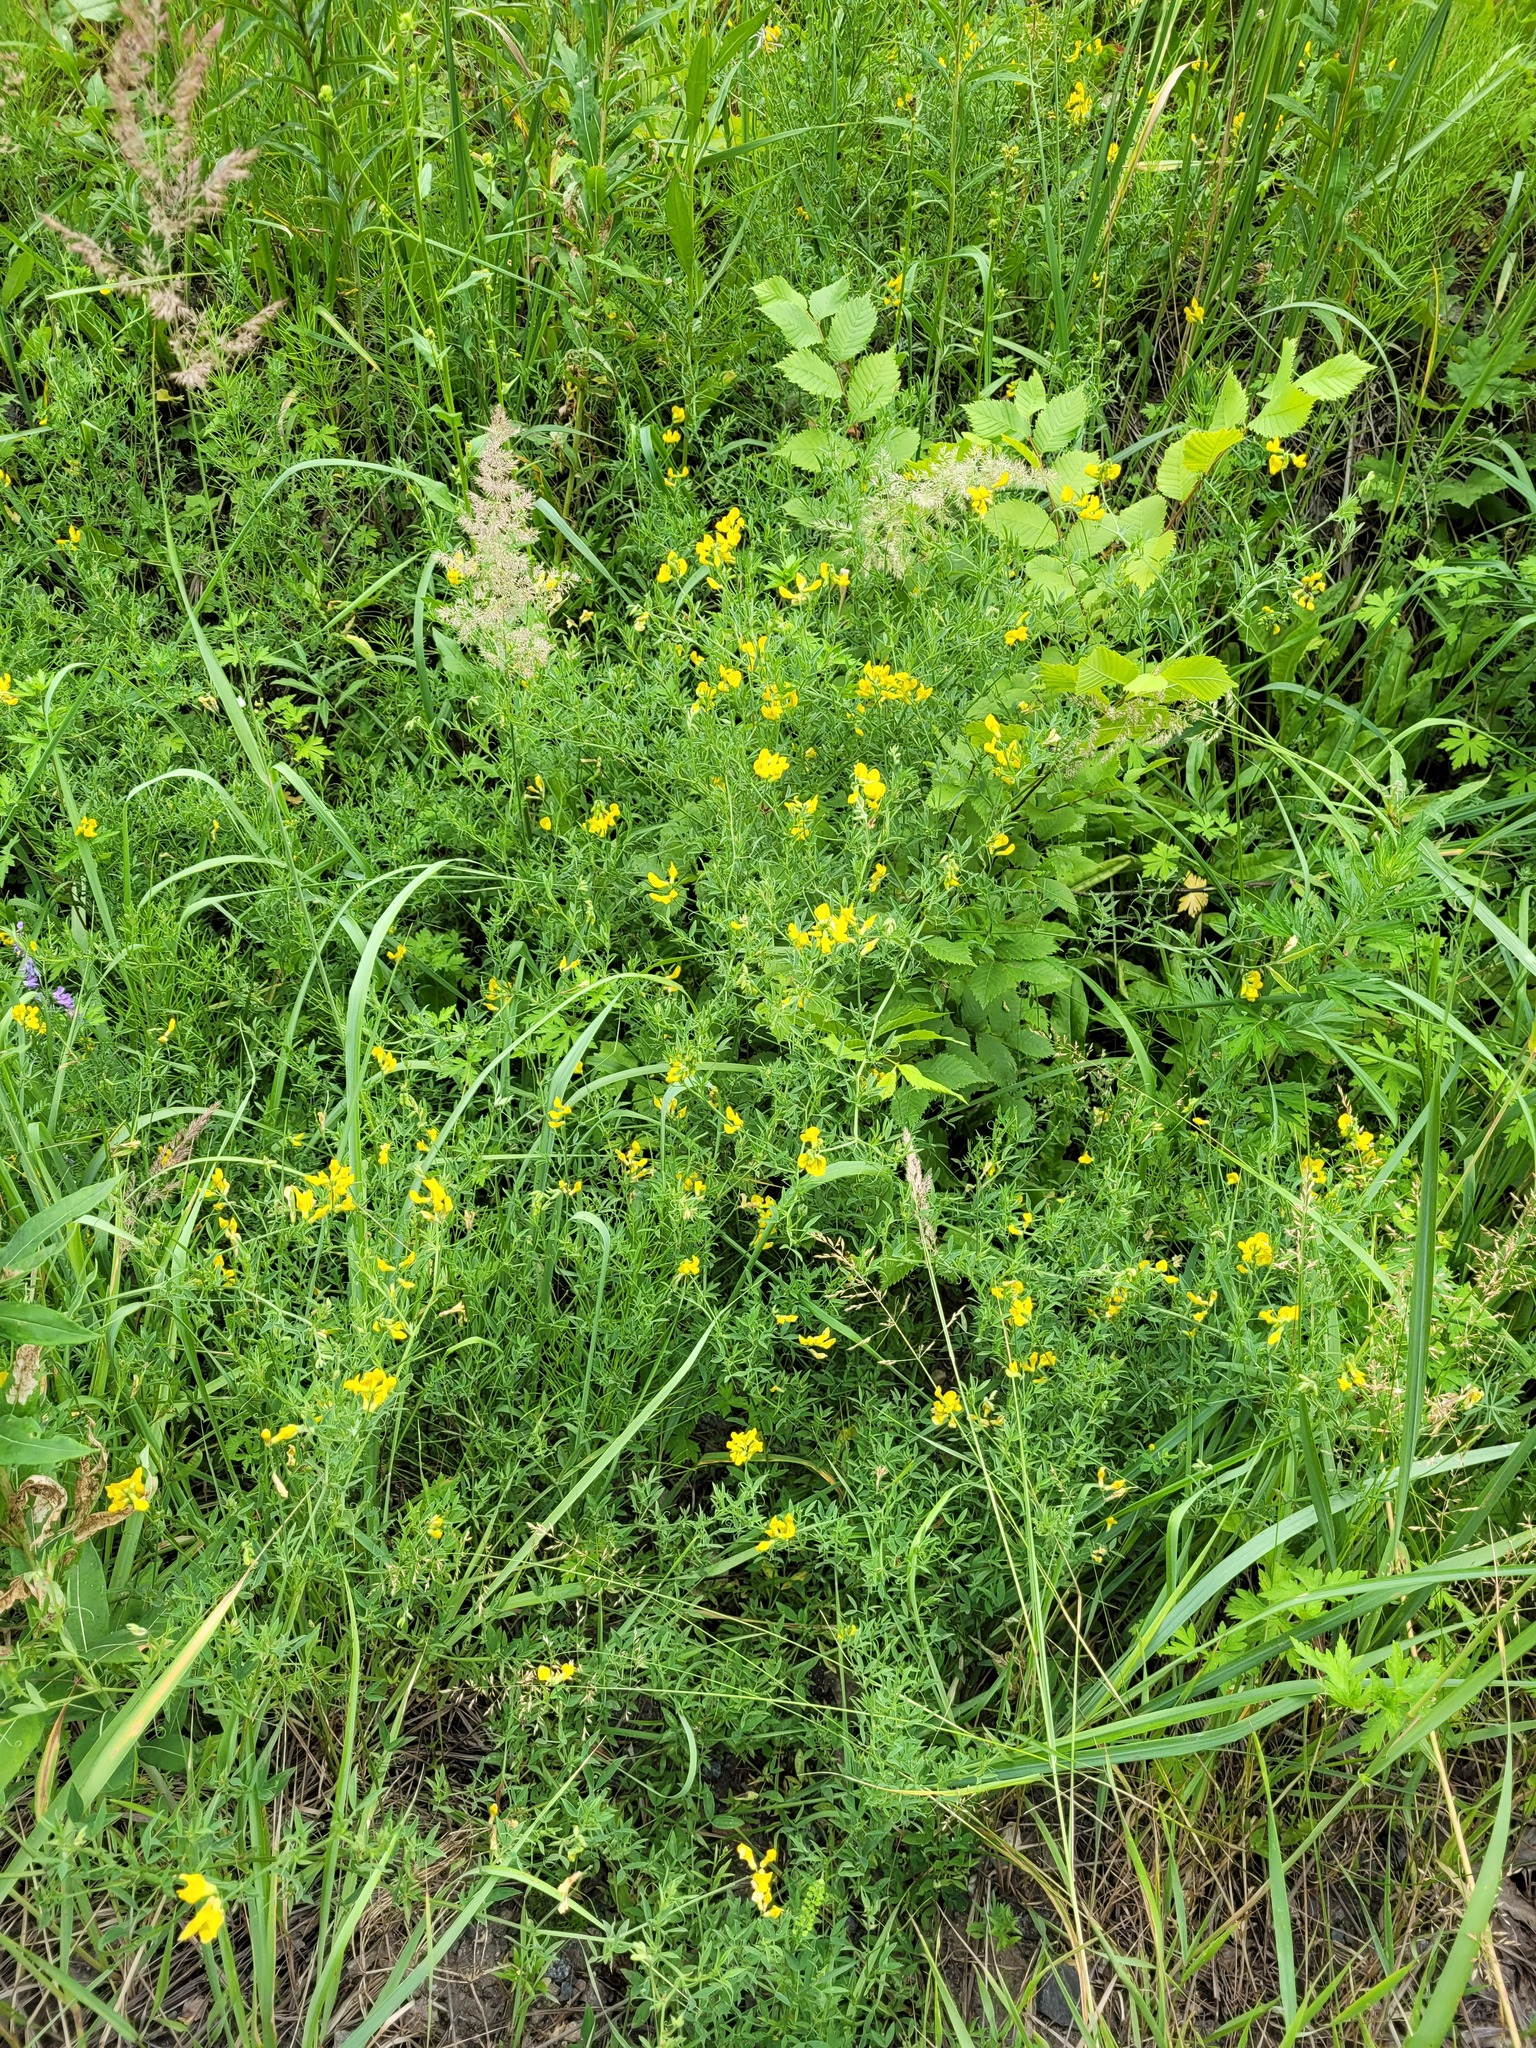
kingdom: Plantae
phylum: Tracheophyta
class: Magnoliopsida
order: Fabales
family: Fabaceae
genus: Lathyrus
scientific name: Lathyrus pratensis
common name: Meadow vetchling
